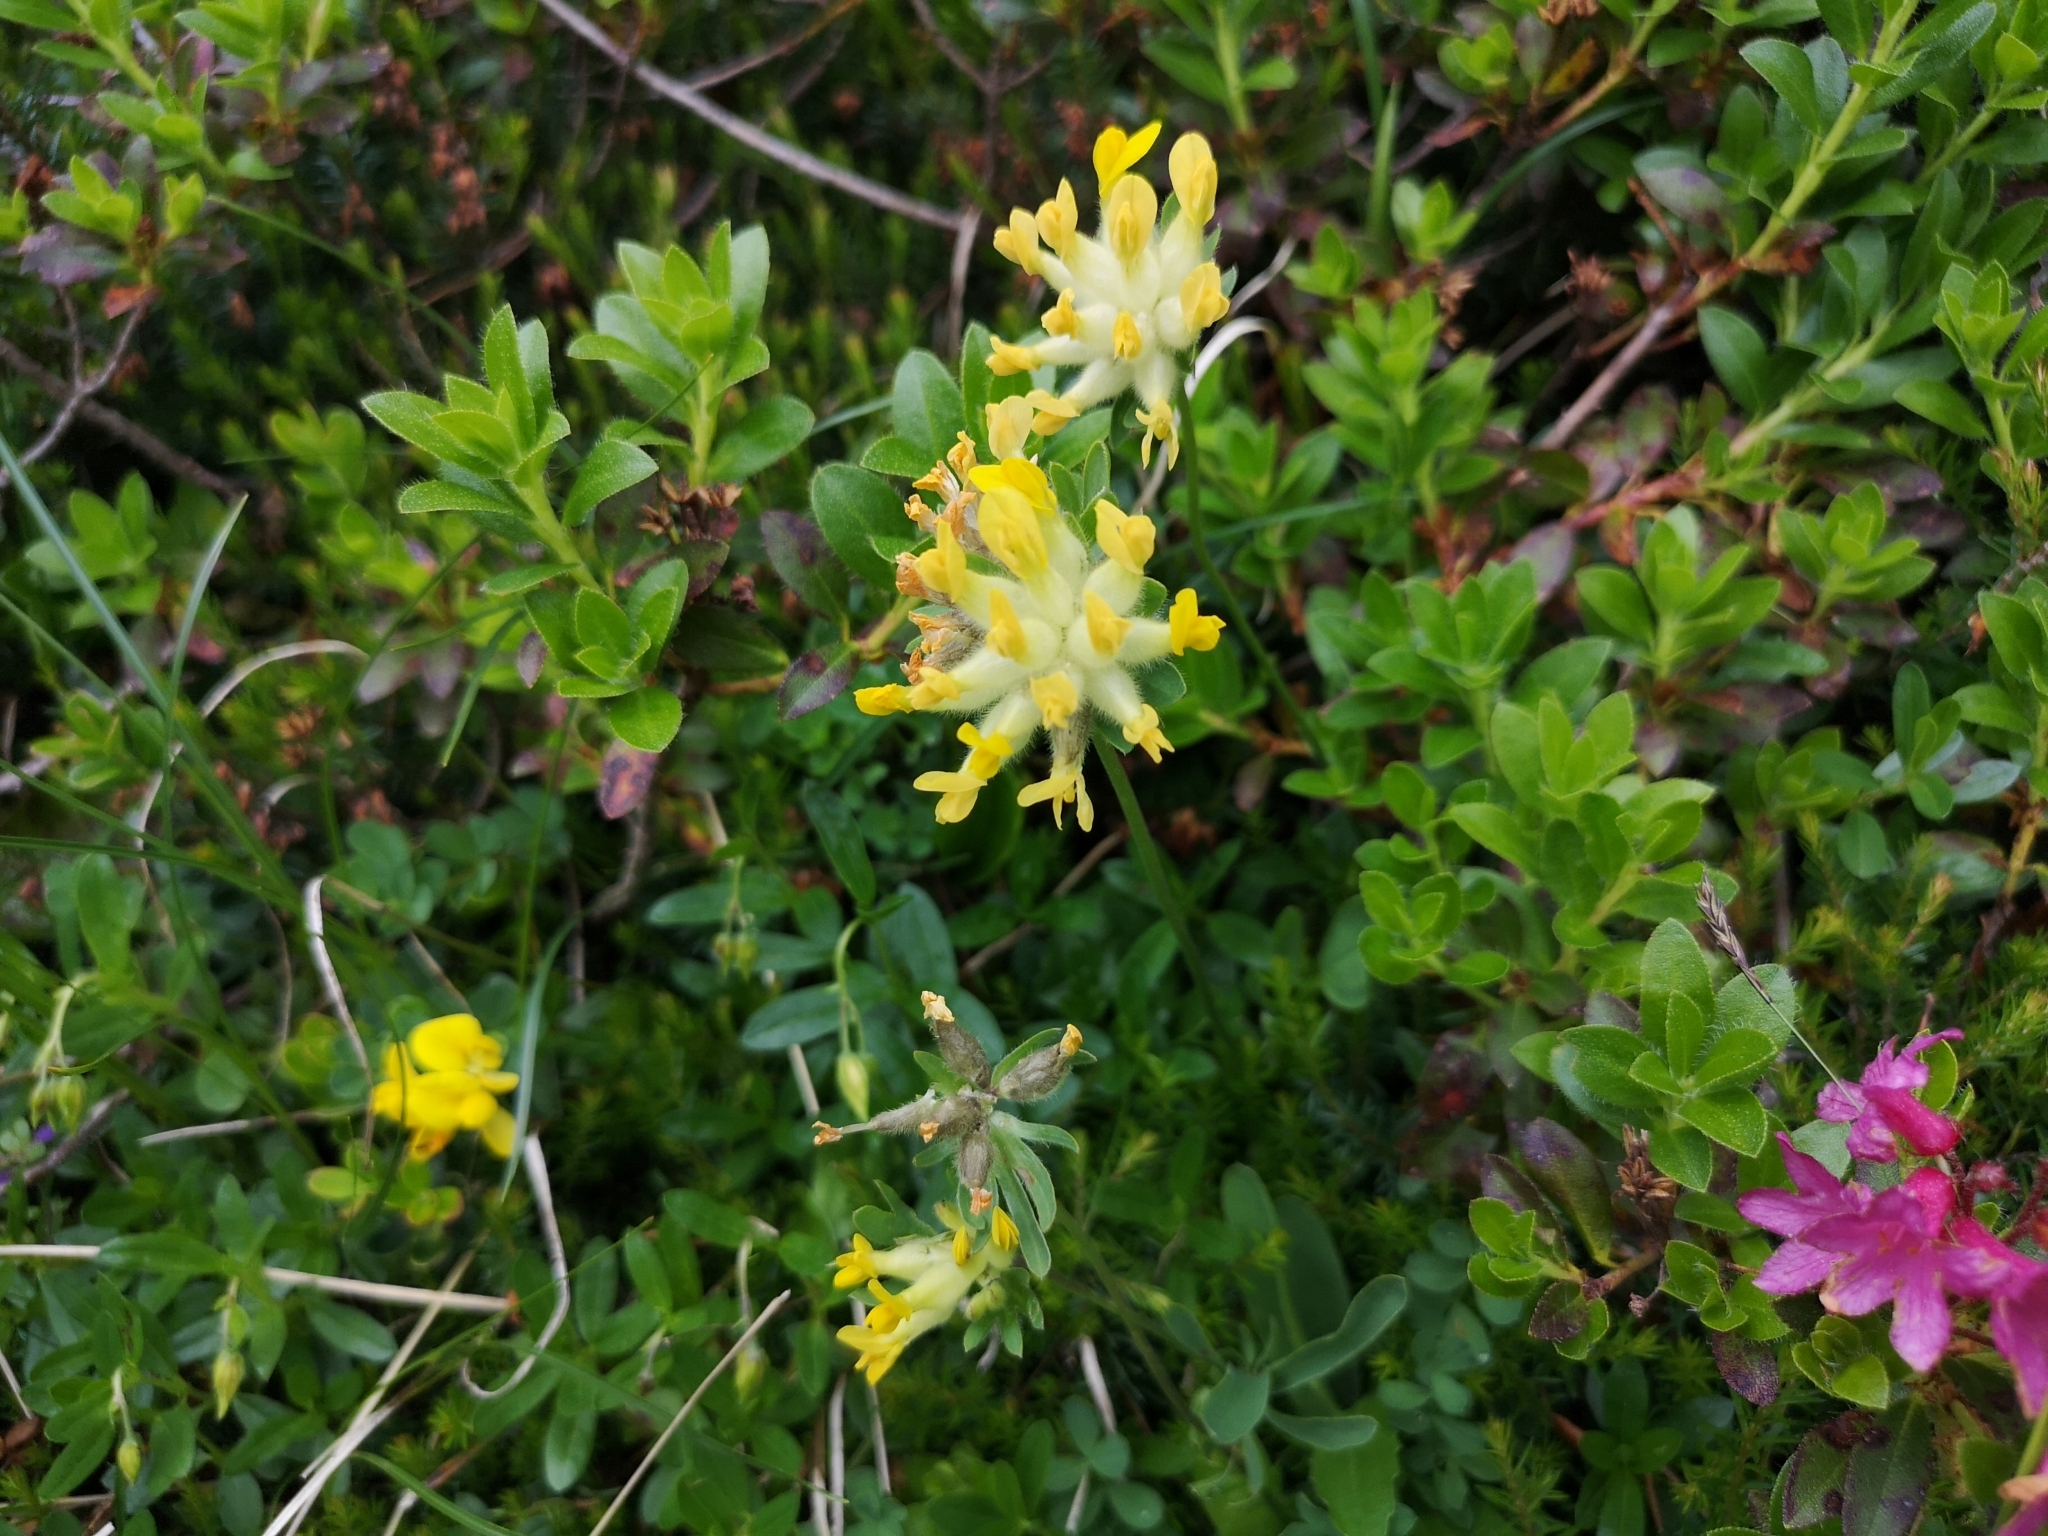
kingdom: Plantae
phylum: Tracheophyta
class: Magnoliopsida
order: Fabales
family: Fabaceae
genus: Anthyllis
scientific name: Anthyllis vulneraria
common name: Kidney vetch
